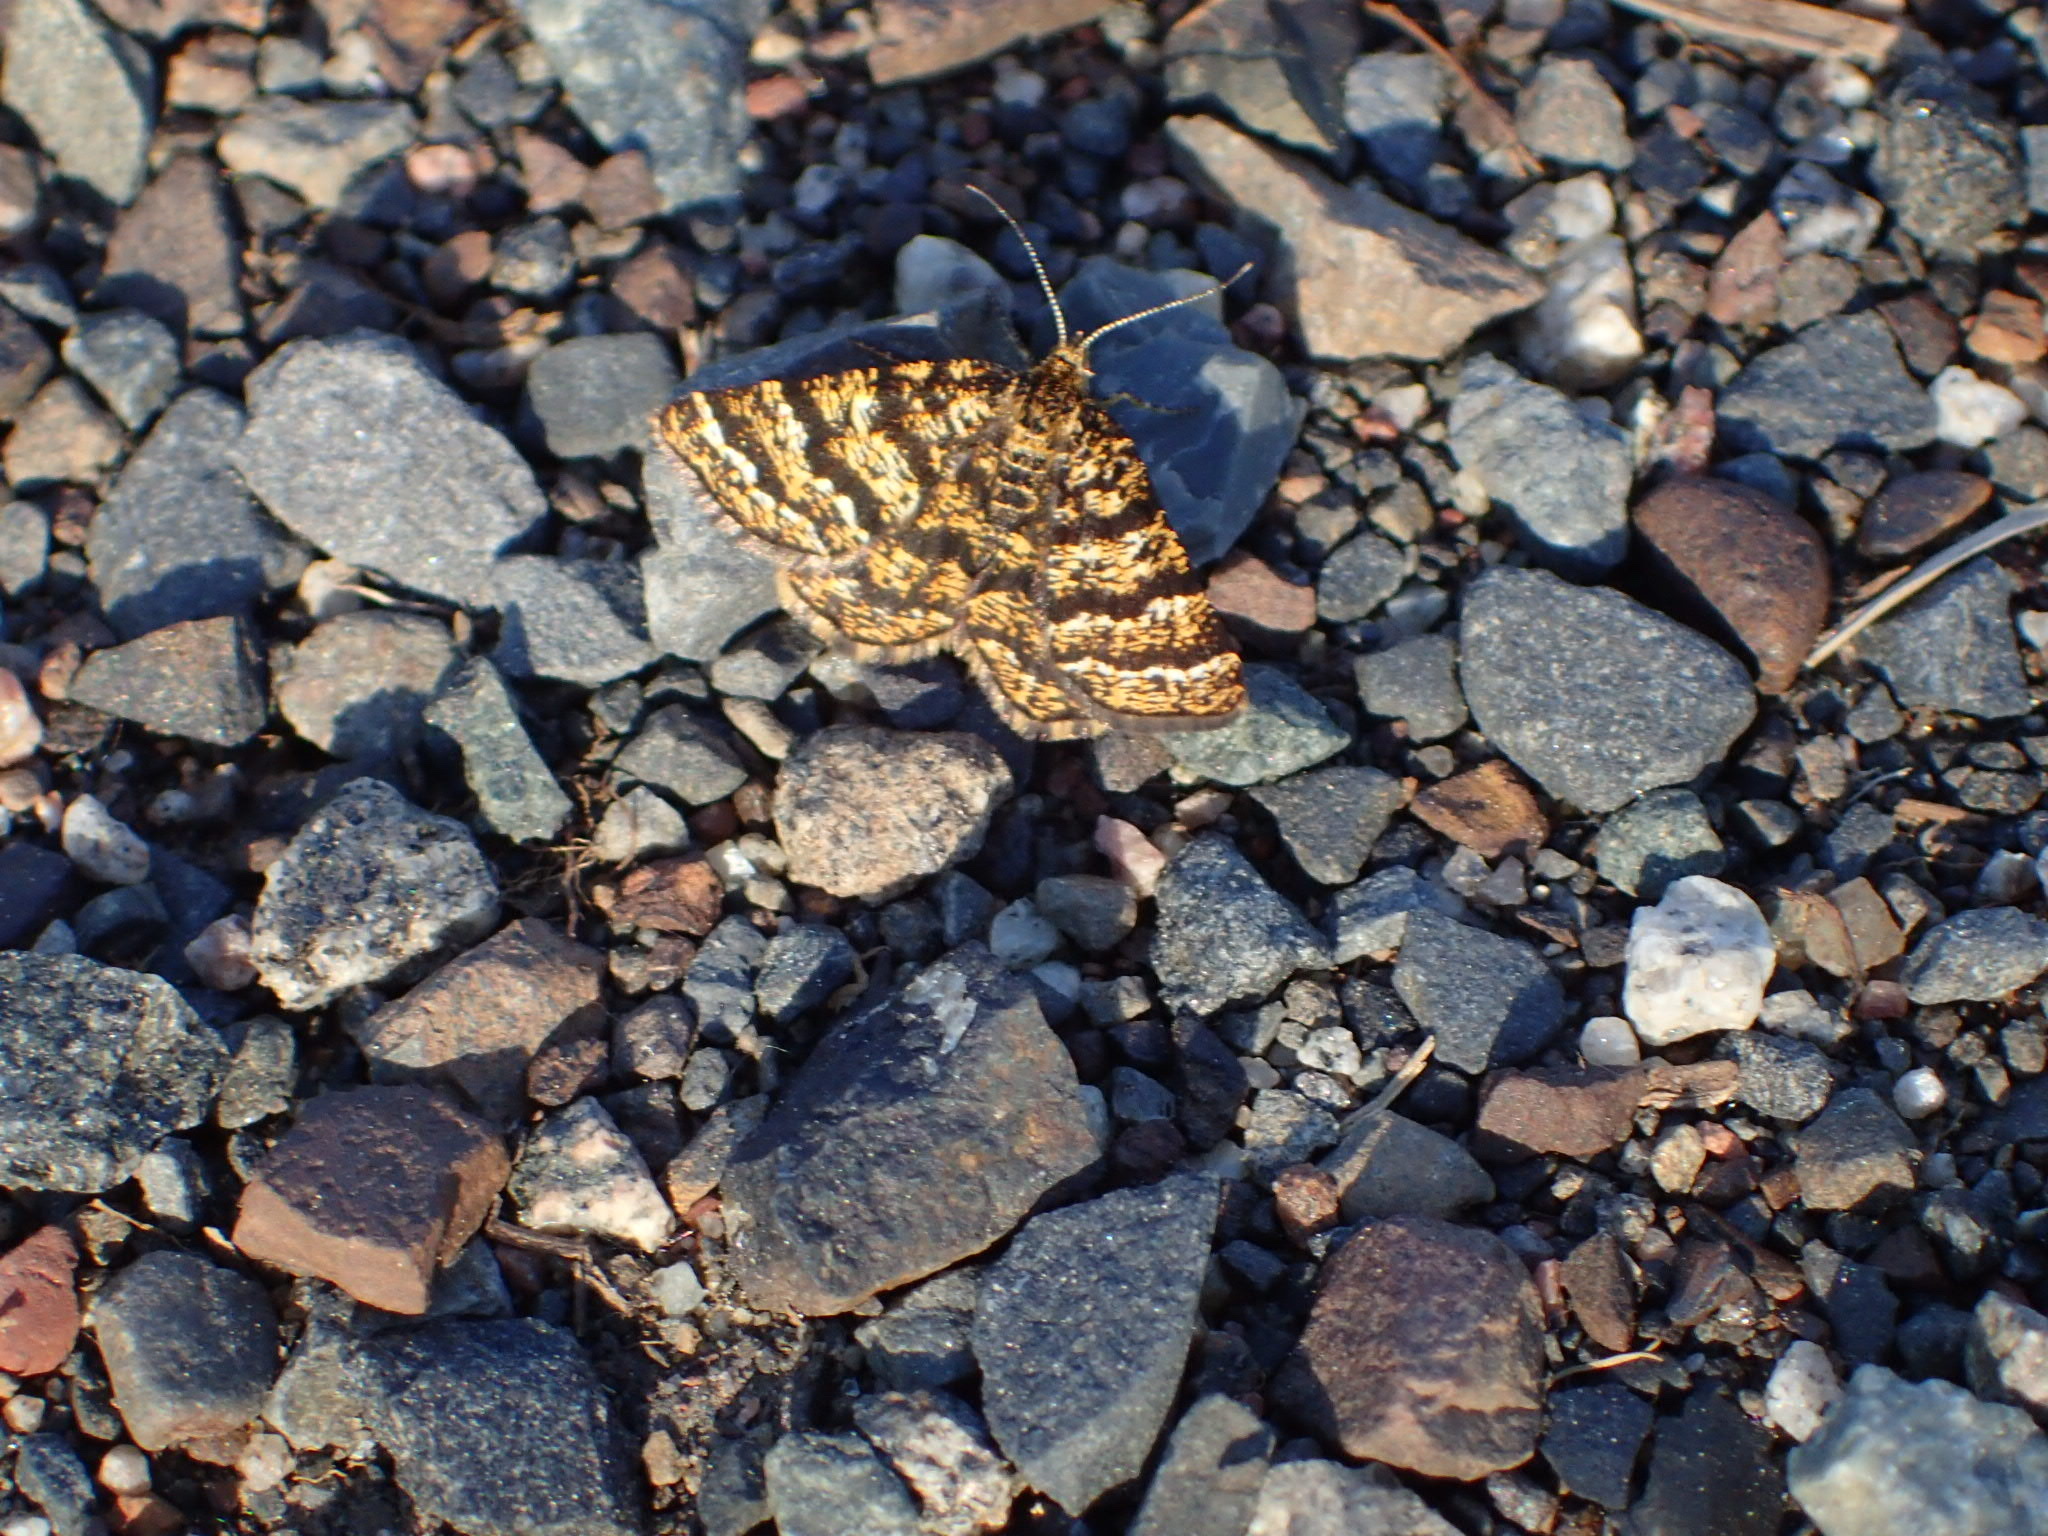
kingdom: Animalia
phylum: Arthropoda
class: Insecta
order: Lepidoptera
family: Geometridae
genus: Macaria
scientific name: Macaria truncataria
